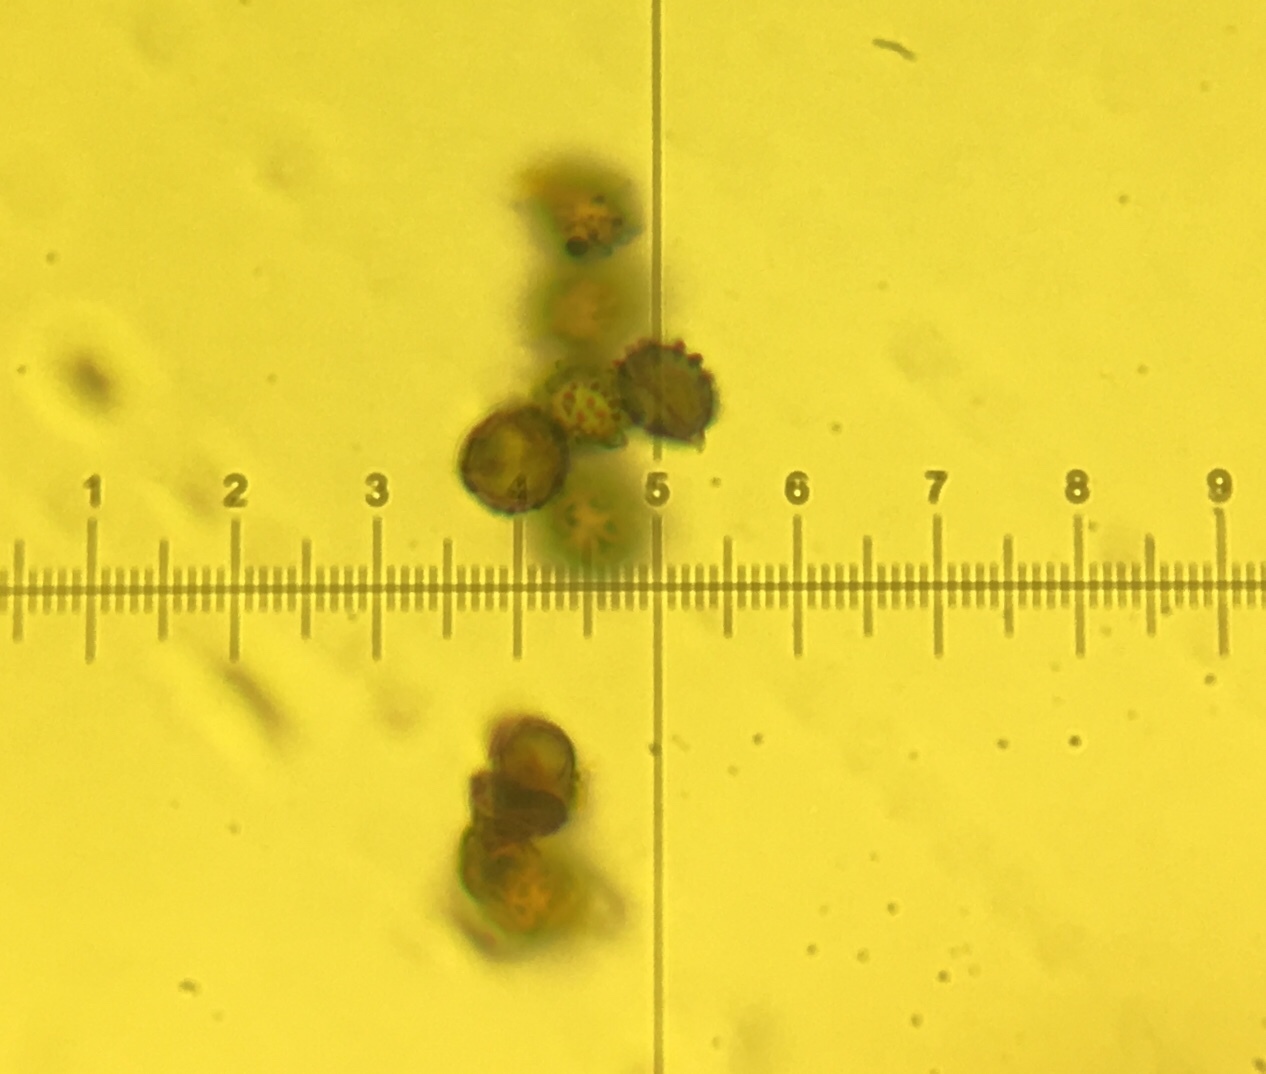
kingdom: Fungi
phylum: Basidiomycota
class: Agaricomycetes
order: Russulales
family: Russulaceae
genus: Russula
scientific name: Russula fucosa
